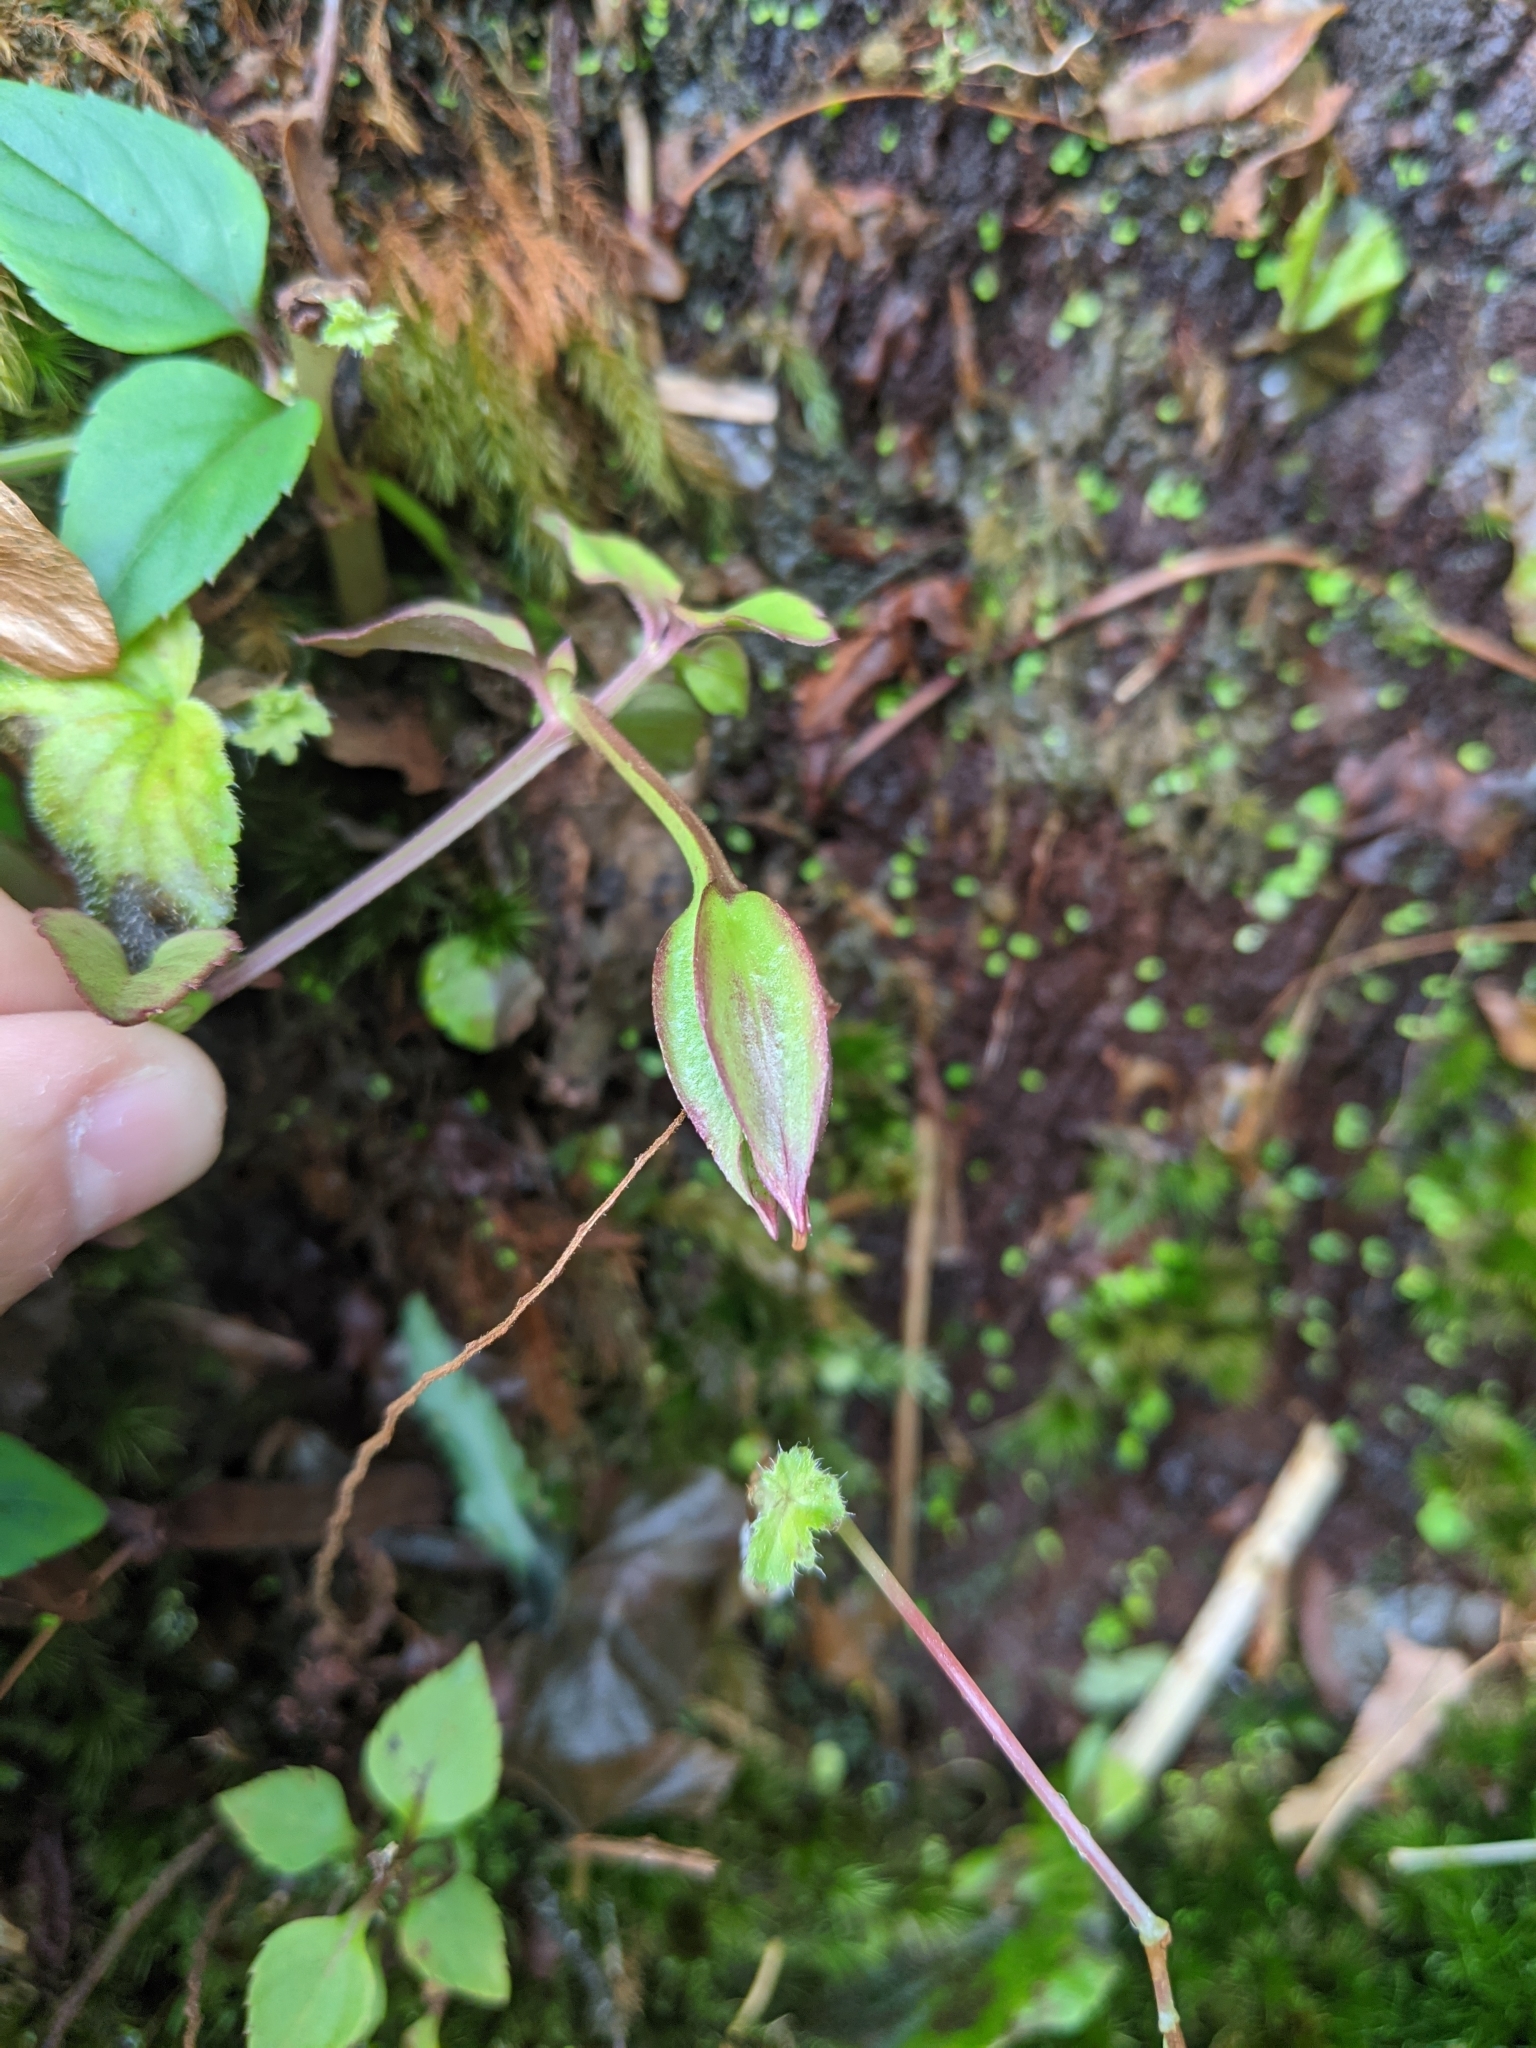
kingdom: Plantae
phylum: Tracheophyta
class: Magnoliopsida
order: Lamiales
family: Linderniaceae
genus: Torenia
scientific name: Torenia asiatica
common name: Wishbone flower
